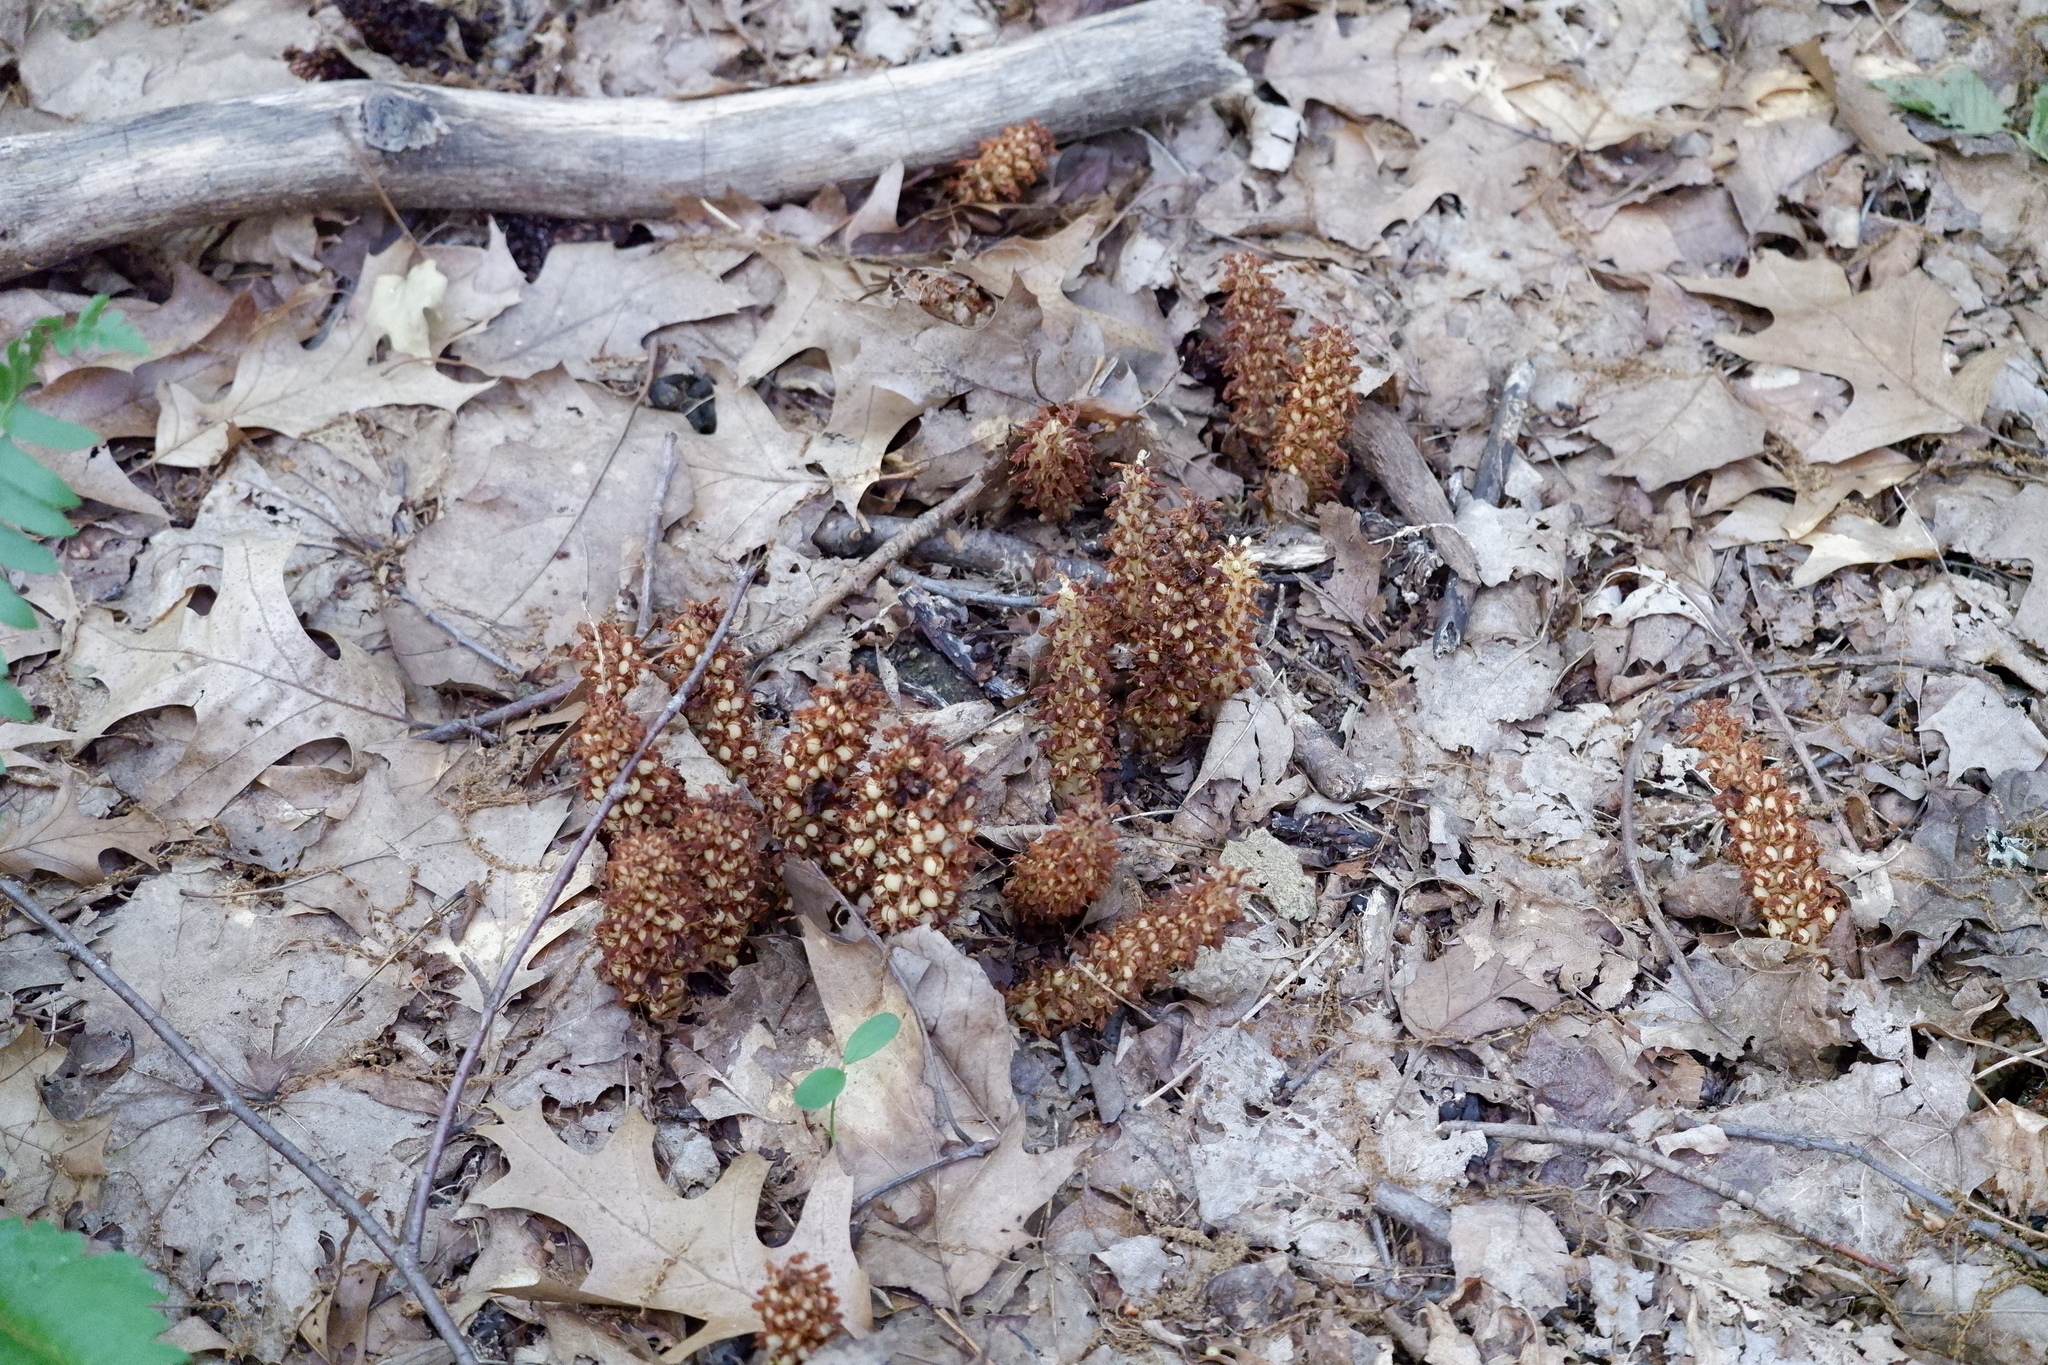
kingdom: Plantae
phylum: Tracheophyta
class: Magnoliopsida
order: Lamiales
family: Orobanchaceae
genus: Conopholis
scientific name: Conopholis americana
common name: American cancer-root
